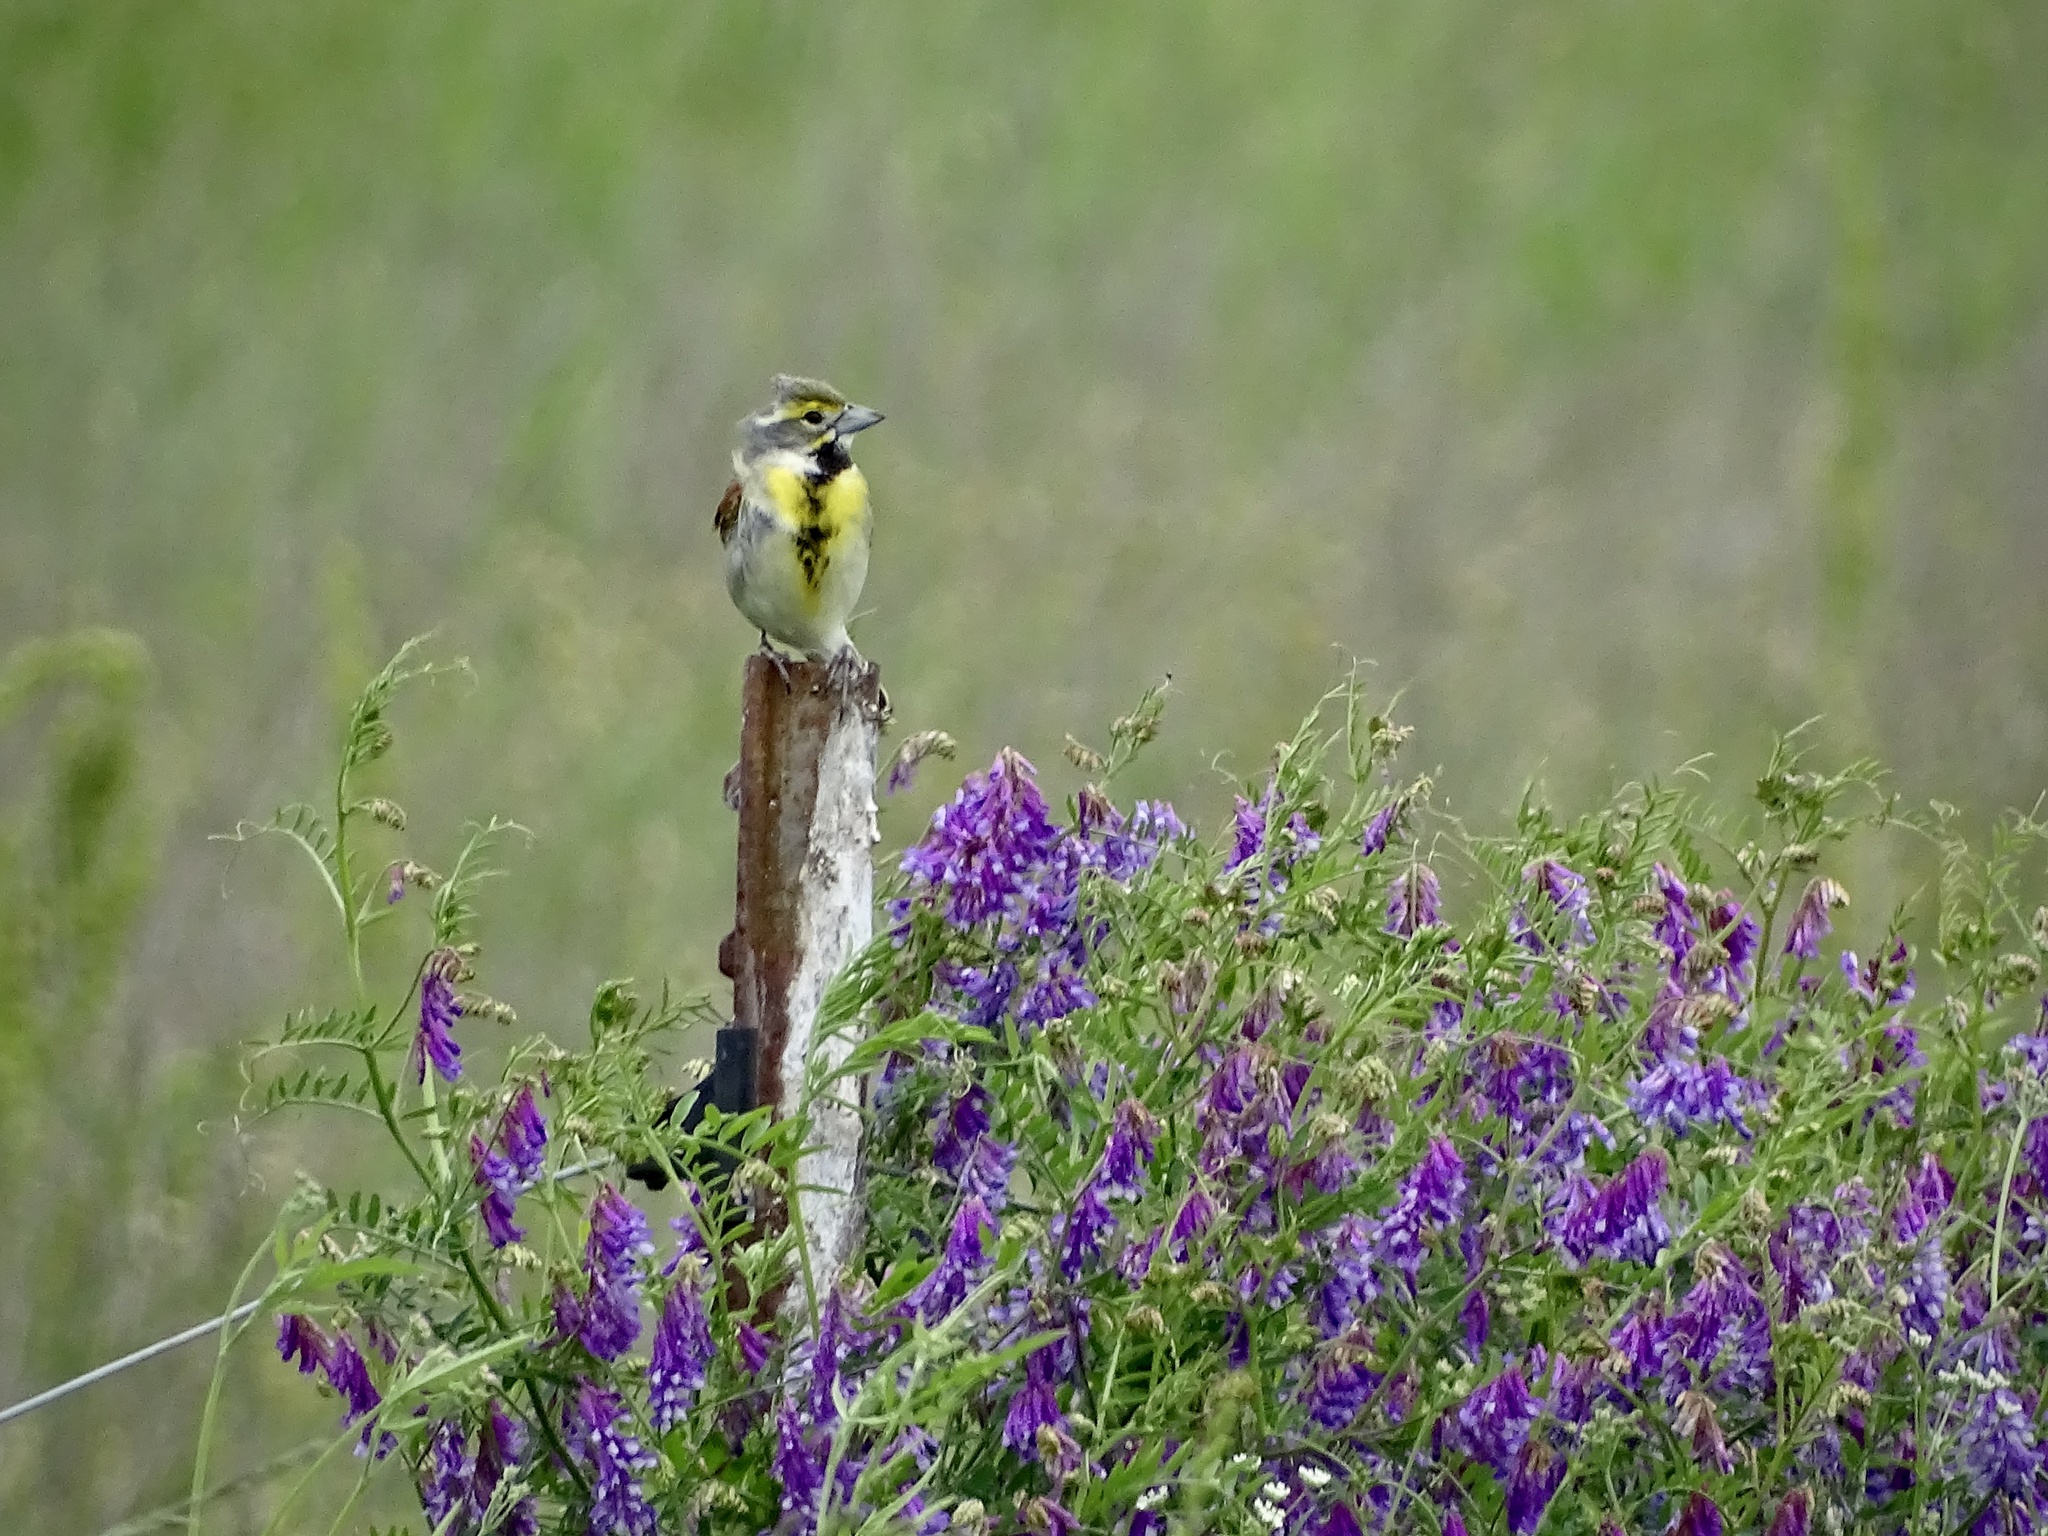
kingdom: Animalia
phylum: Chordata
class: Aves
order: Passeriformes
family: Cardinalidae
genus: Spiza
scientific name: Spiza americana
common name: Dickcissel
